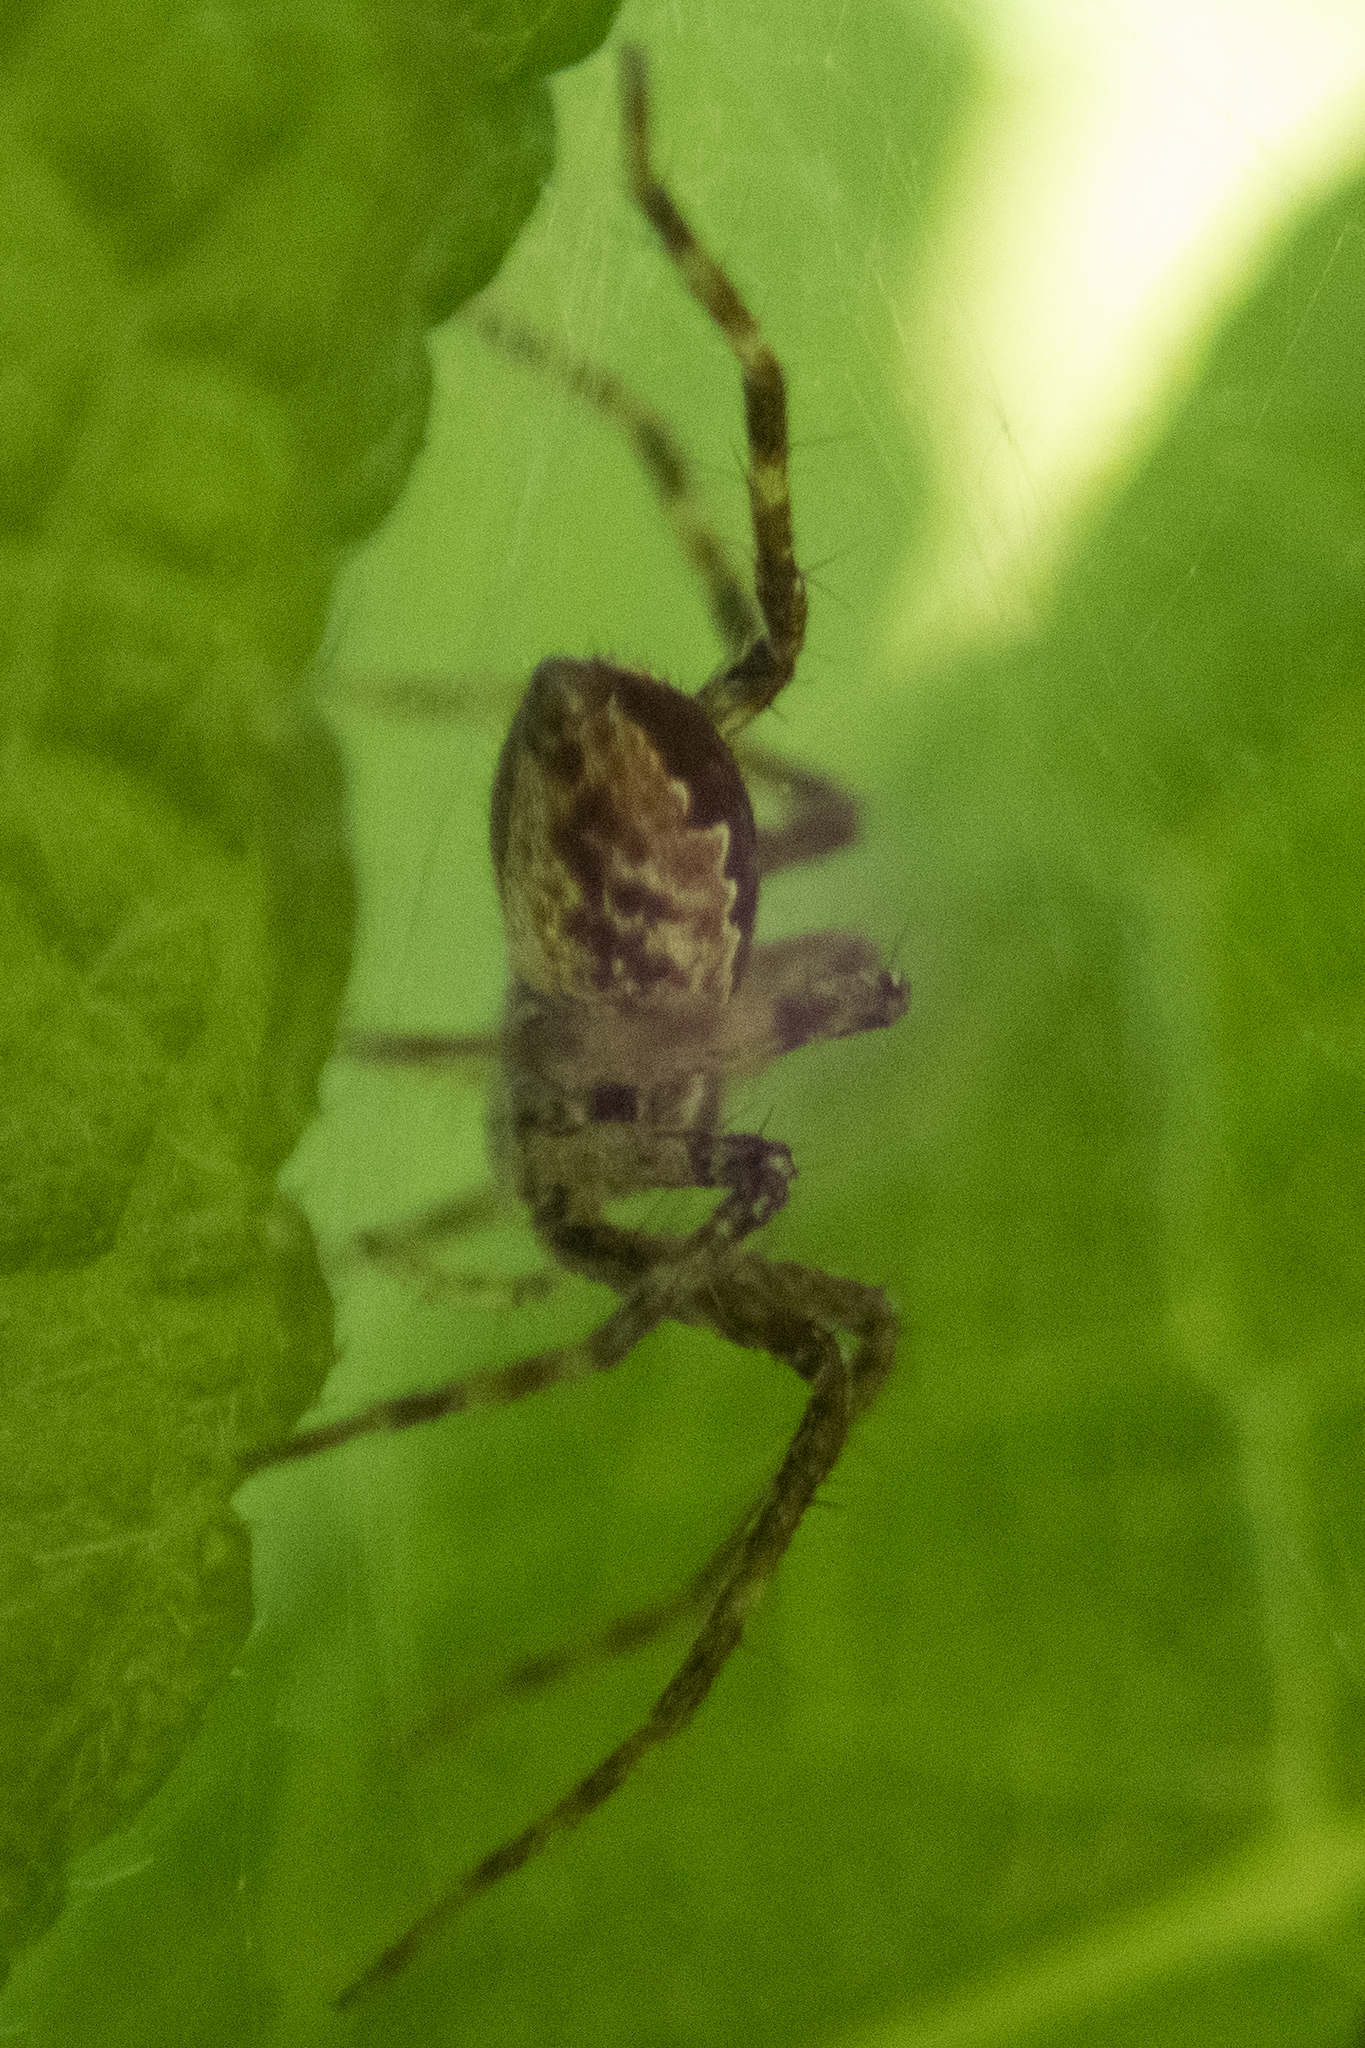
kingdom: Animalia
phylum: Arthropoda
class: Arachnida
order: Araneae
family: Pisauridae
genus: Pisaurina
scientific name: Pisaurina mira
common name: American nursery web spider
